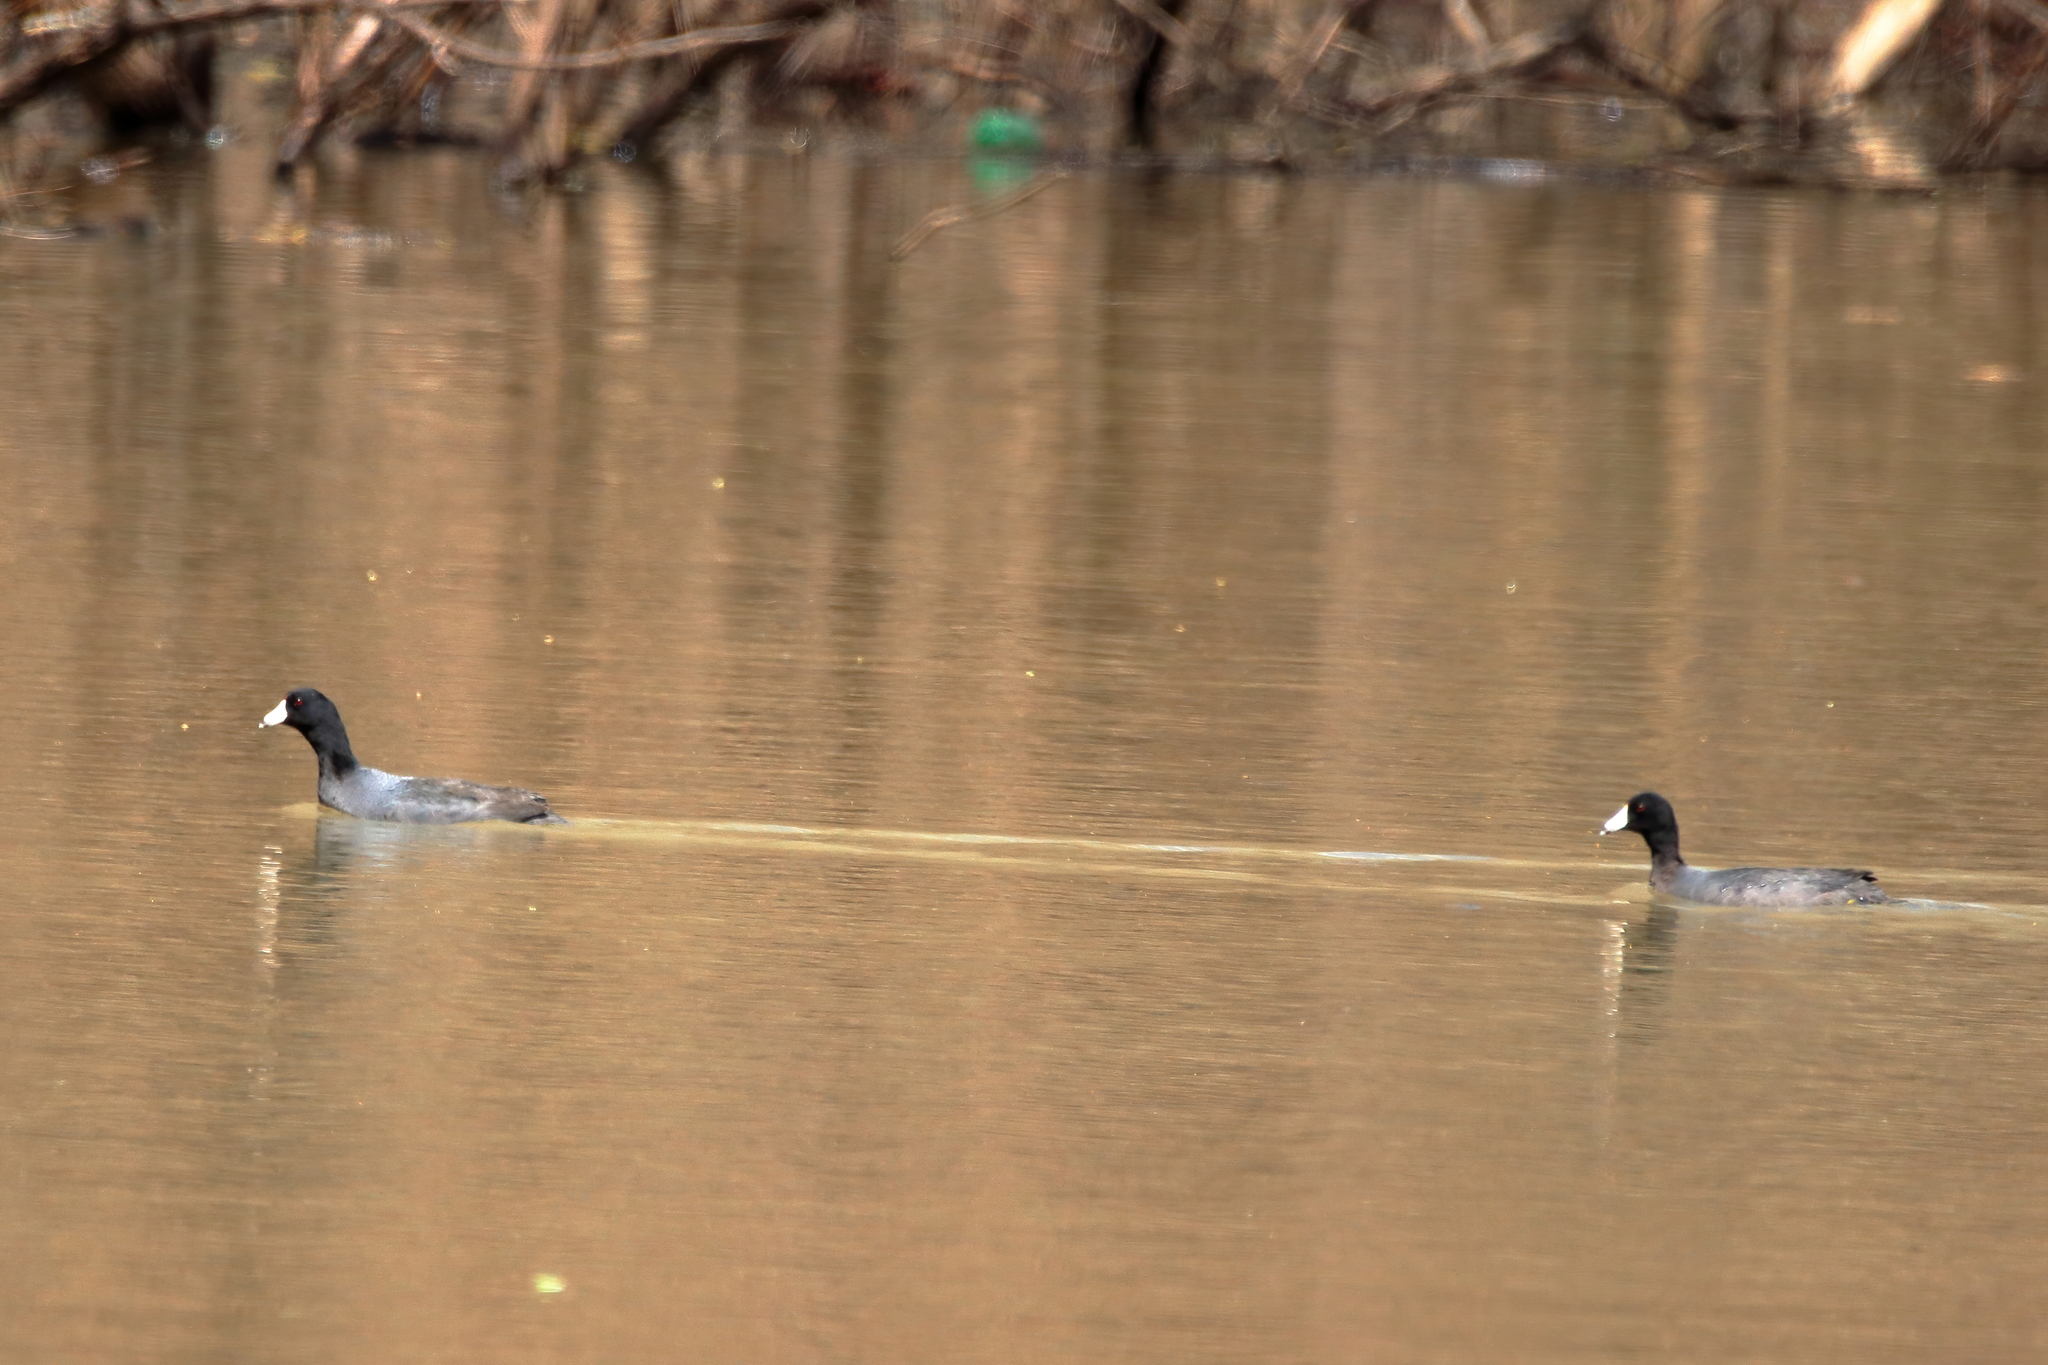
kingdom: Animalia
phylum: Chordata
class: Aves
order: Gruiformes
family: Rallidae
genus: Fulica
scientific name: Fulica americana
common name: American coot
